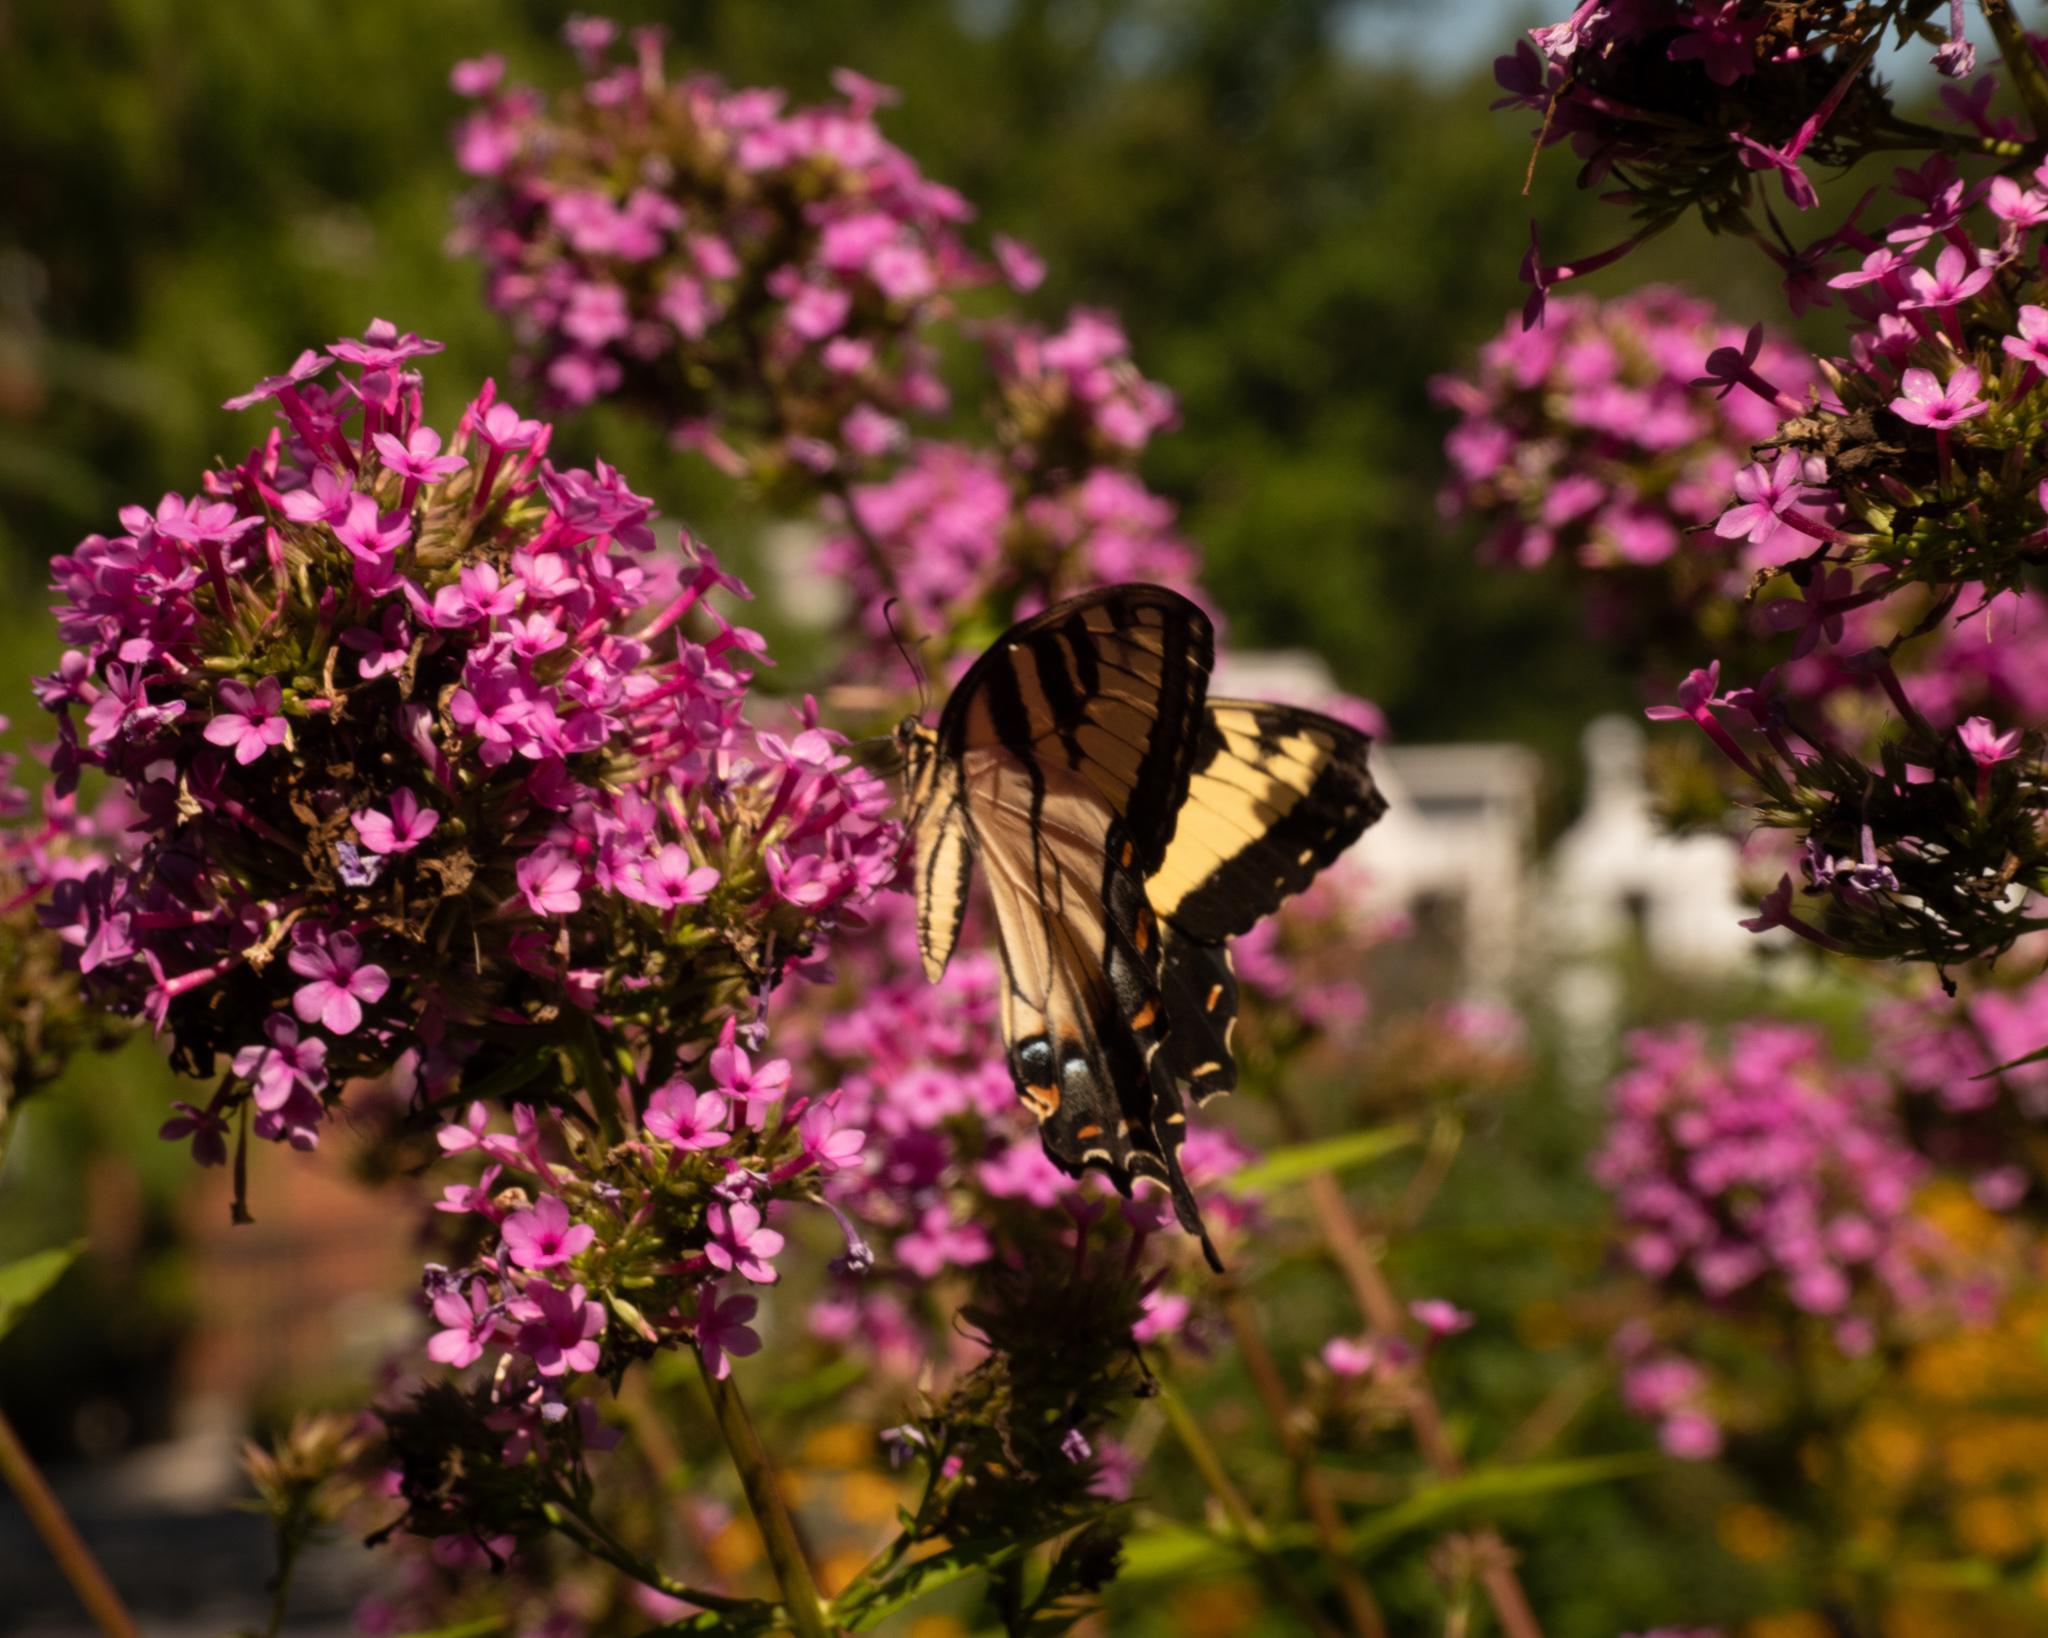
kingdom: Animalia
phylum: Arthropoda
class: Insecta
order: Lepidoptera
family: Papilionidae
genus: Papilio
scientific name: Papilio glaucus
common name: Tiger swallowtail
